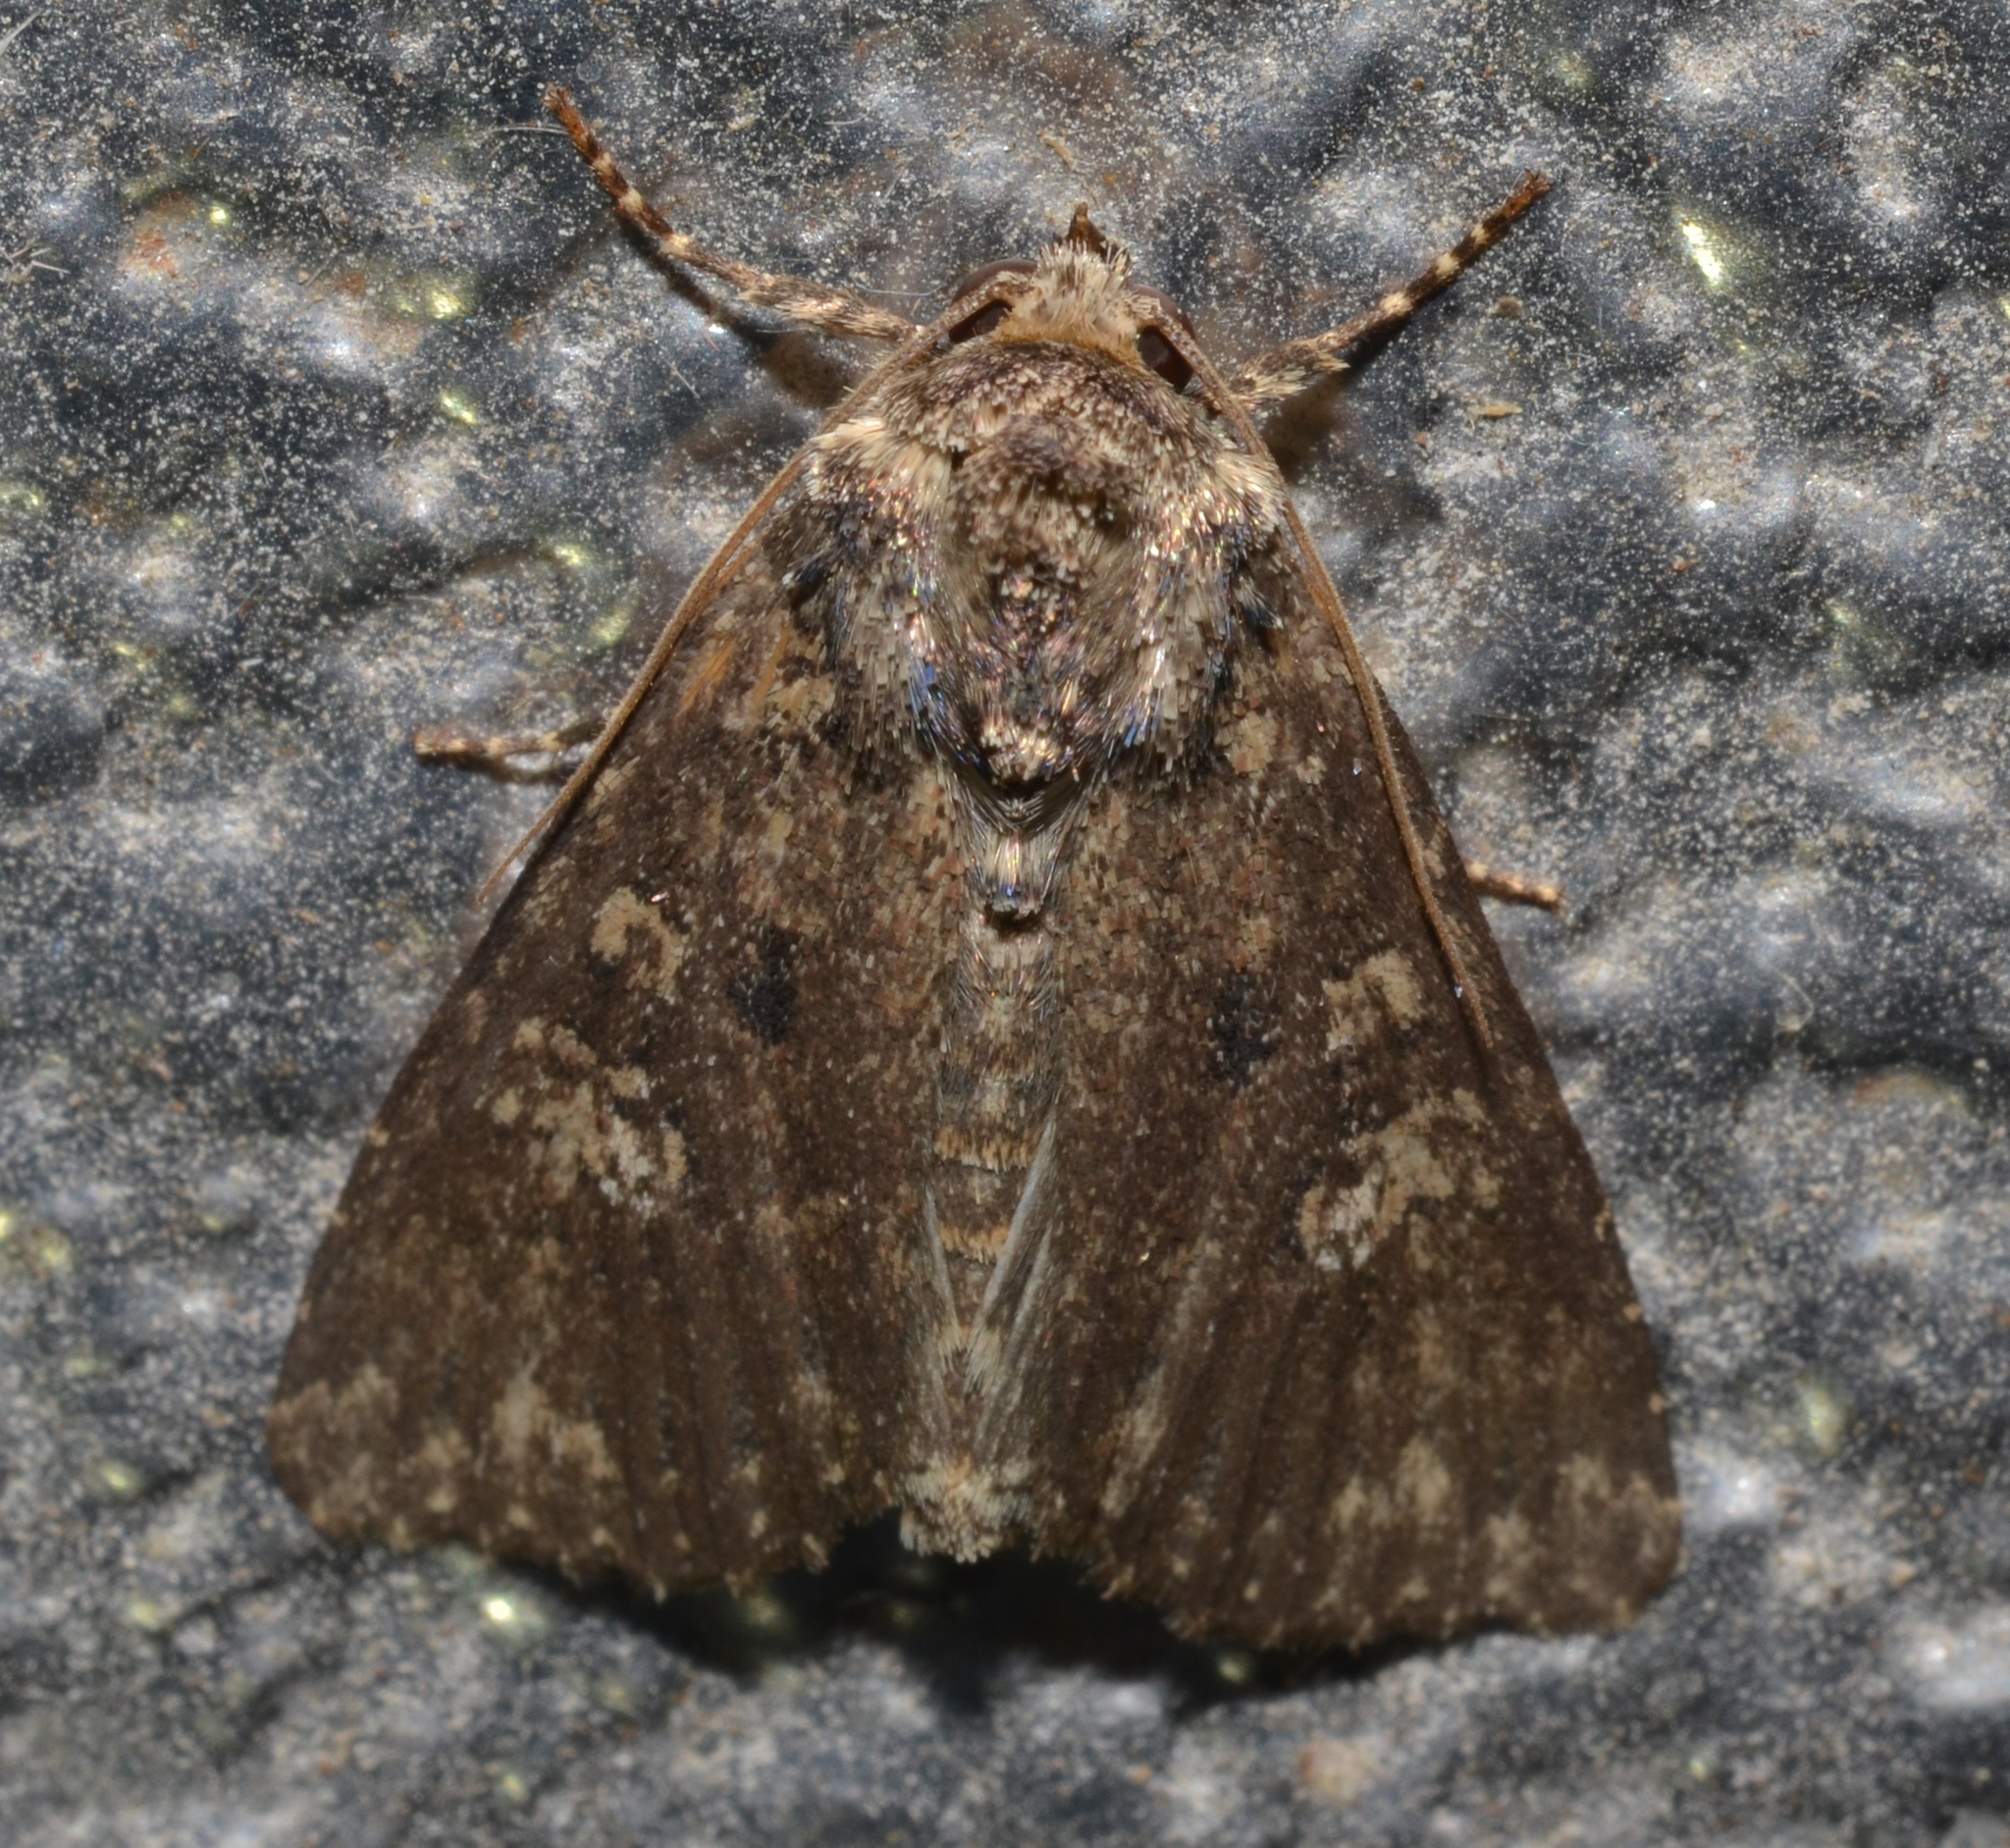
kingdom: Animalia
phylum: Arthropoda
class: Insecta
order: Lepidoptera
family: Noctuidae
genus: Condica
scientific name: Condica vecors
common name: Dusky groundling
